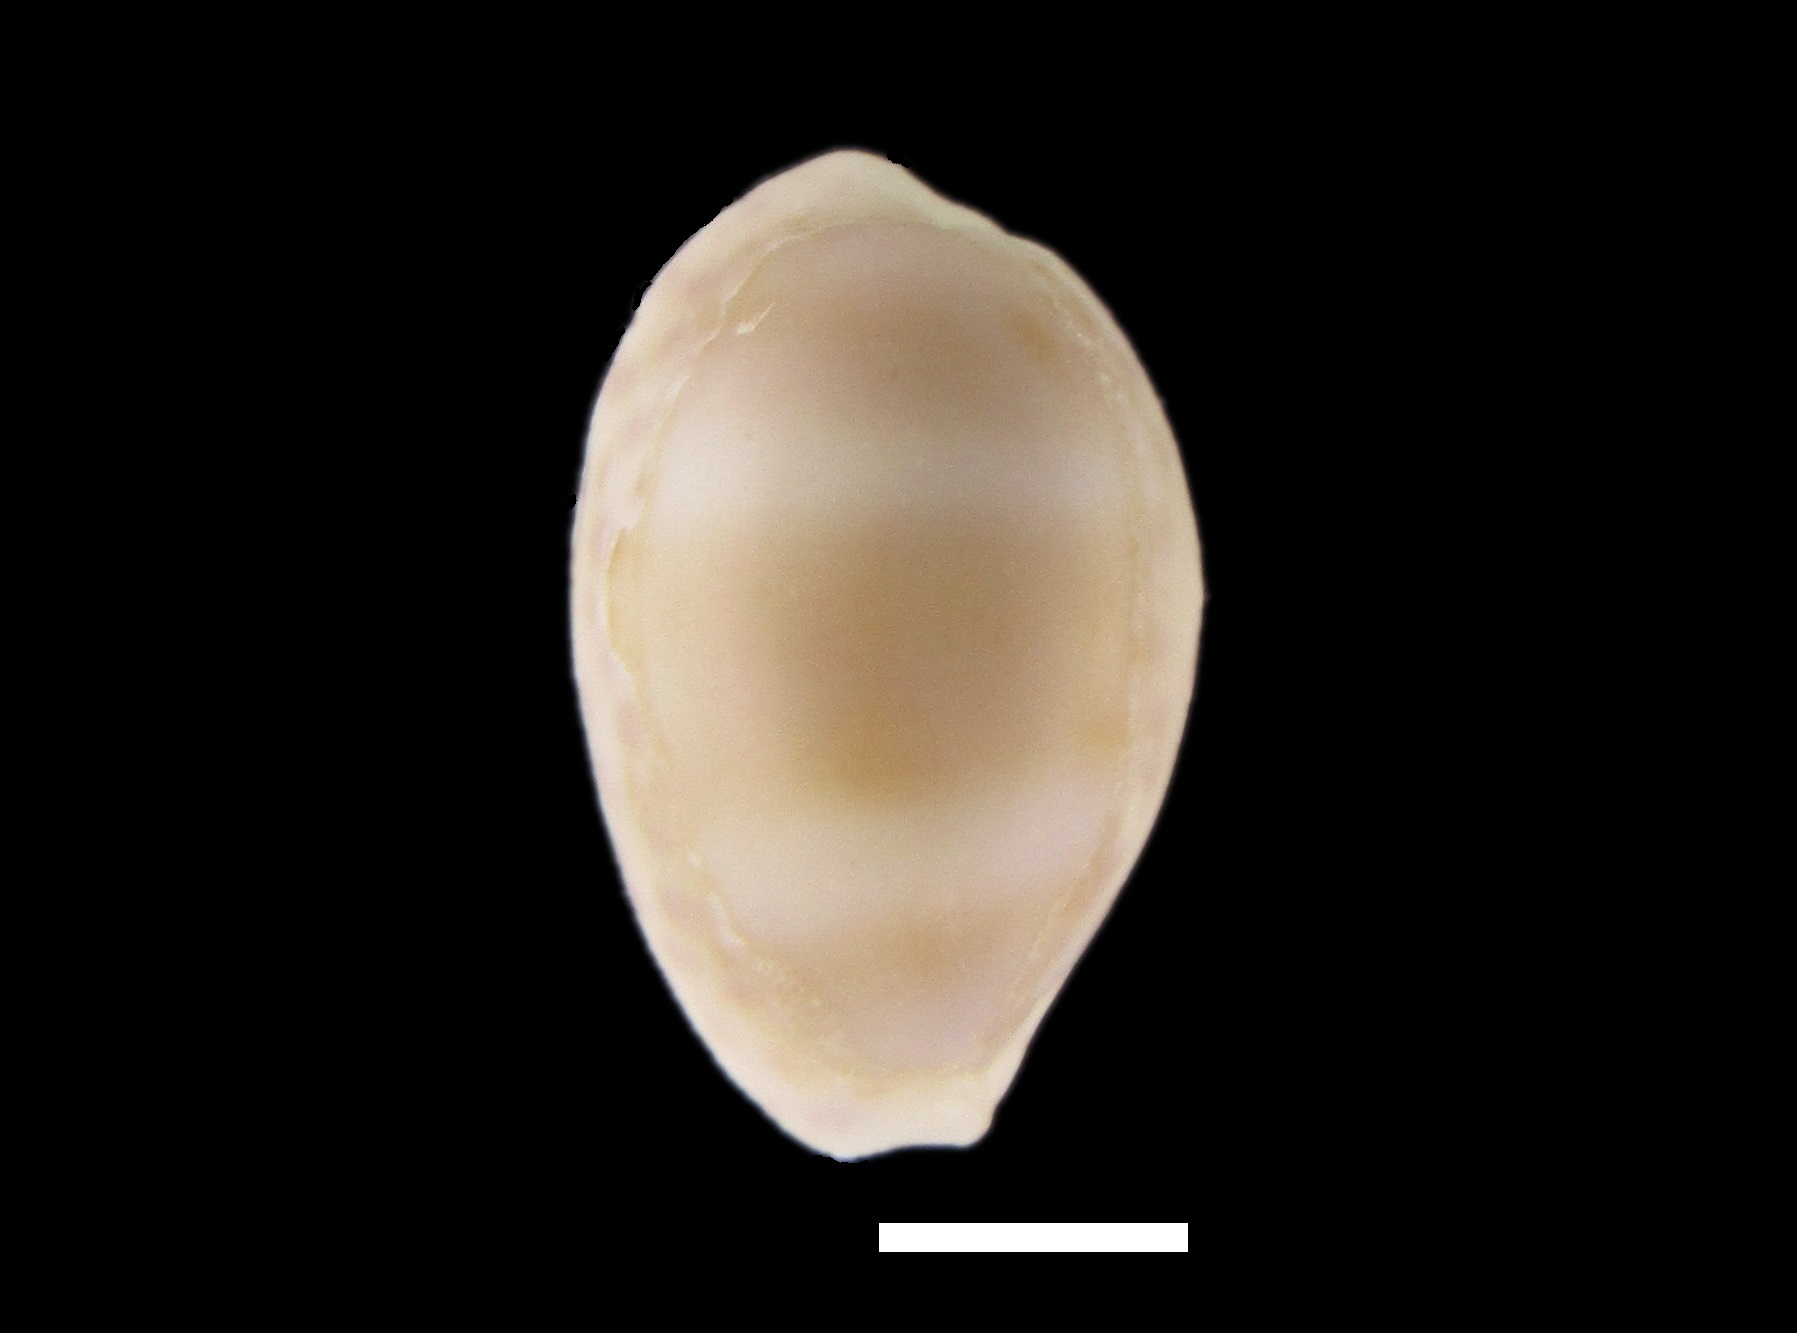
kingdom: Animalia
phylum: Mollusca
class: Gastropoda
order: Littorinimorpha
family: Cypraeidae
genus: Ovatipsa
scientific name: Ovatipsa chinensis
